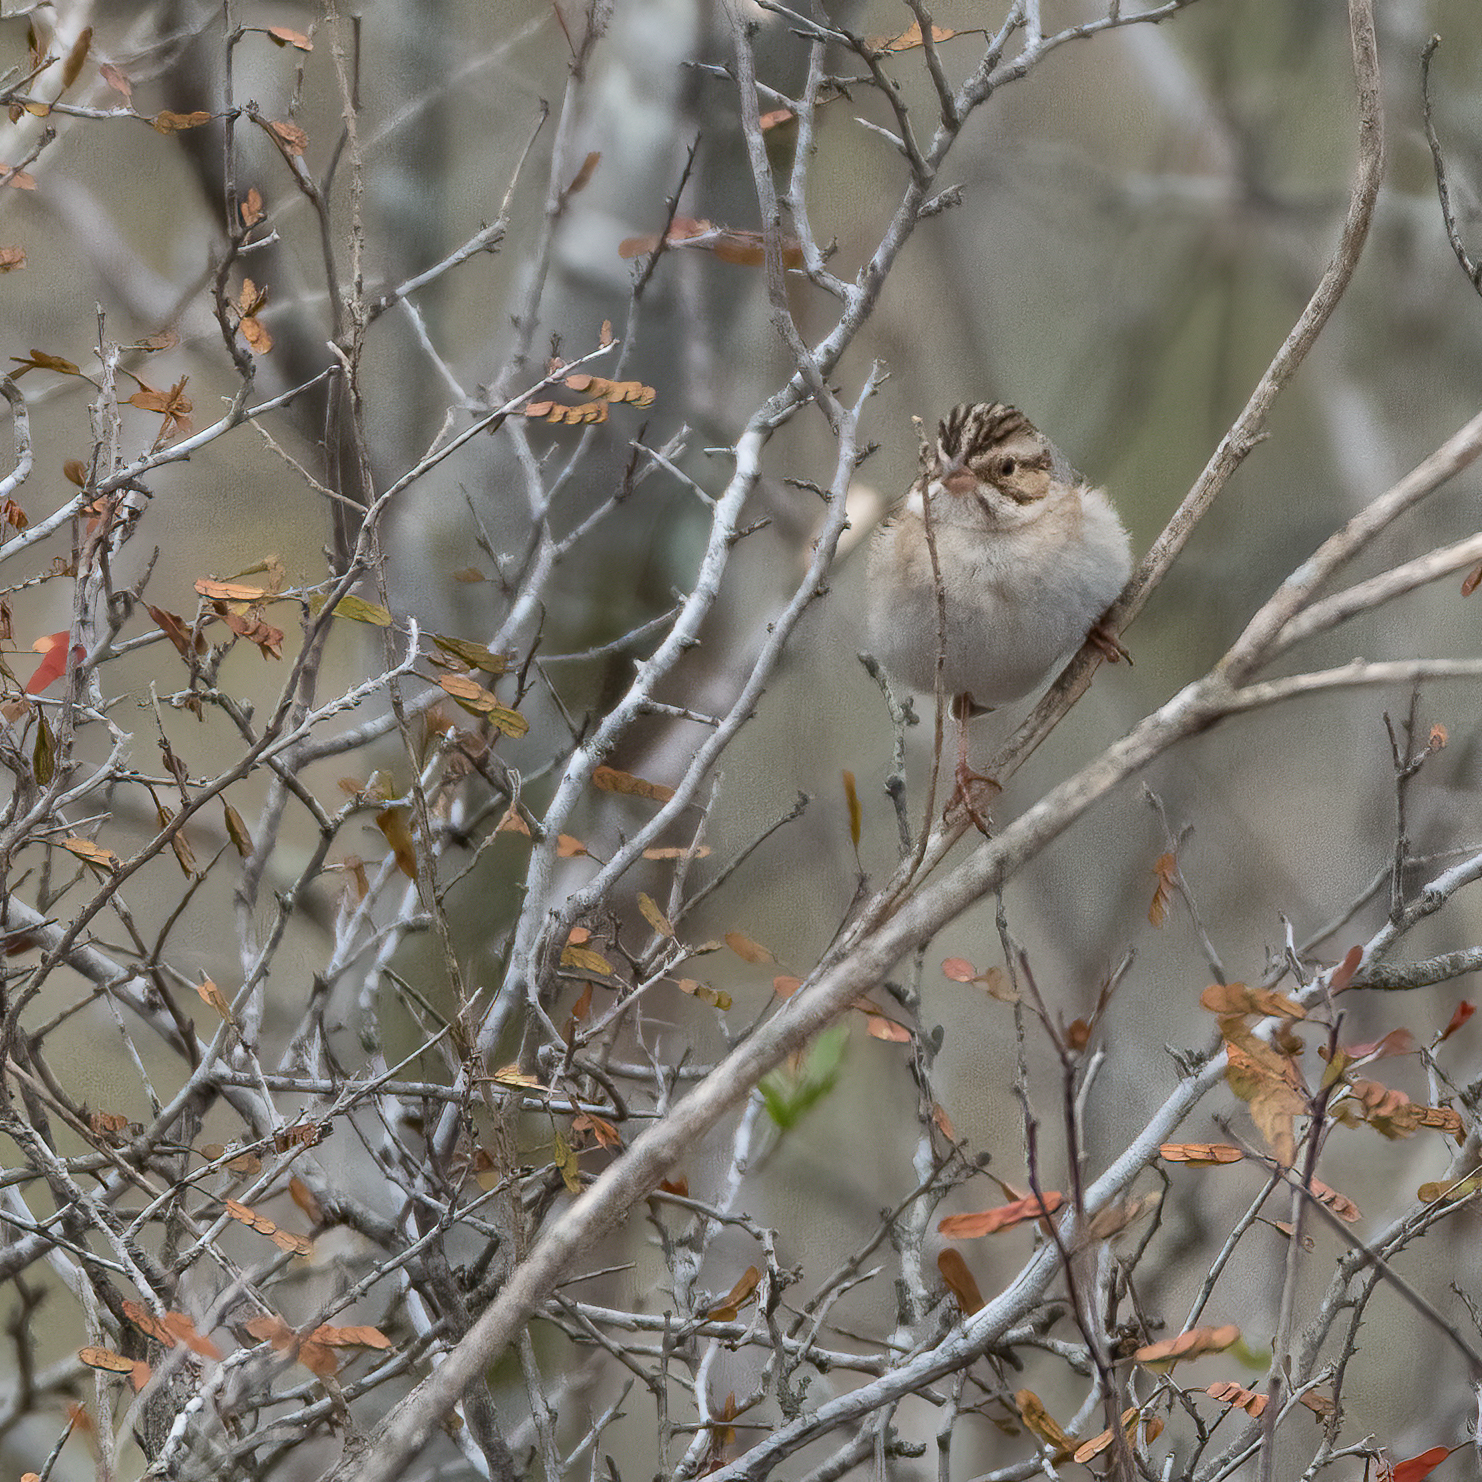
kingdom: Animalia
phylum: Chordata
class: Aves
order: Passeriformes
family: Passerellidae
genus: Spizella
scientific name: Spizella pallida
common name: Clay-colored sparrow
